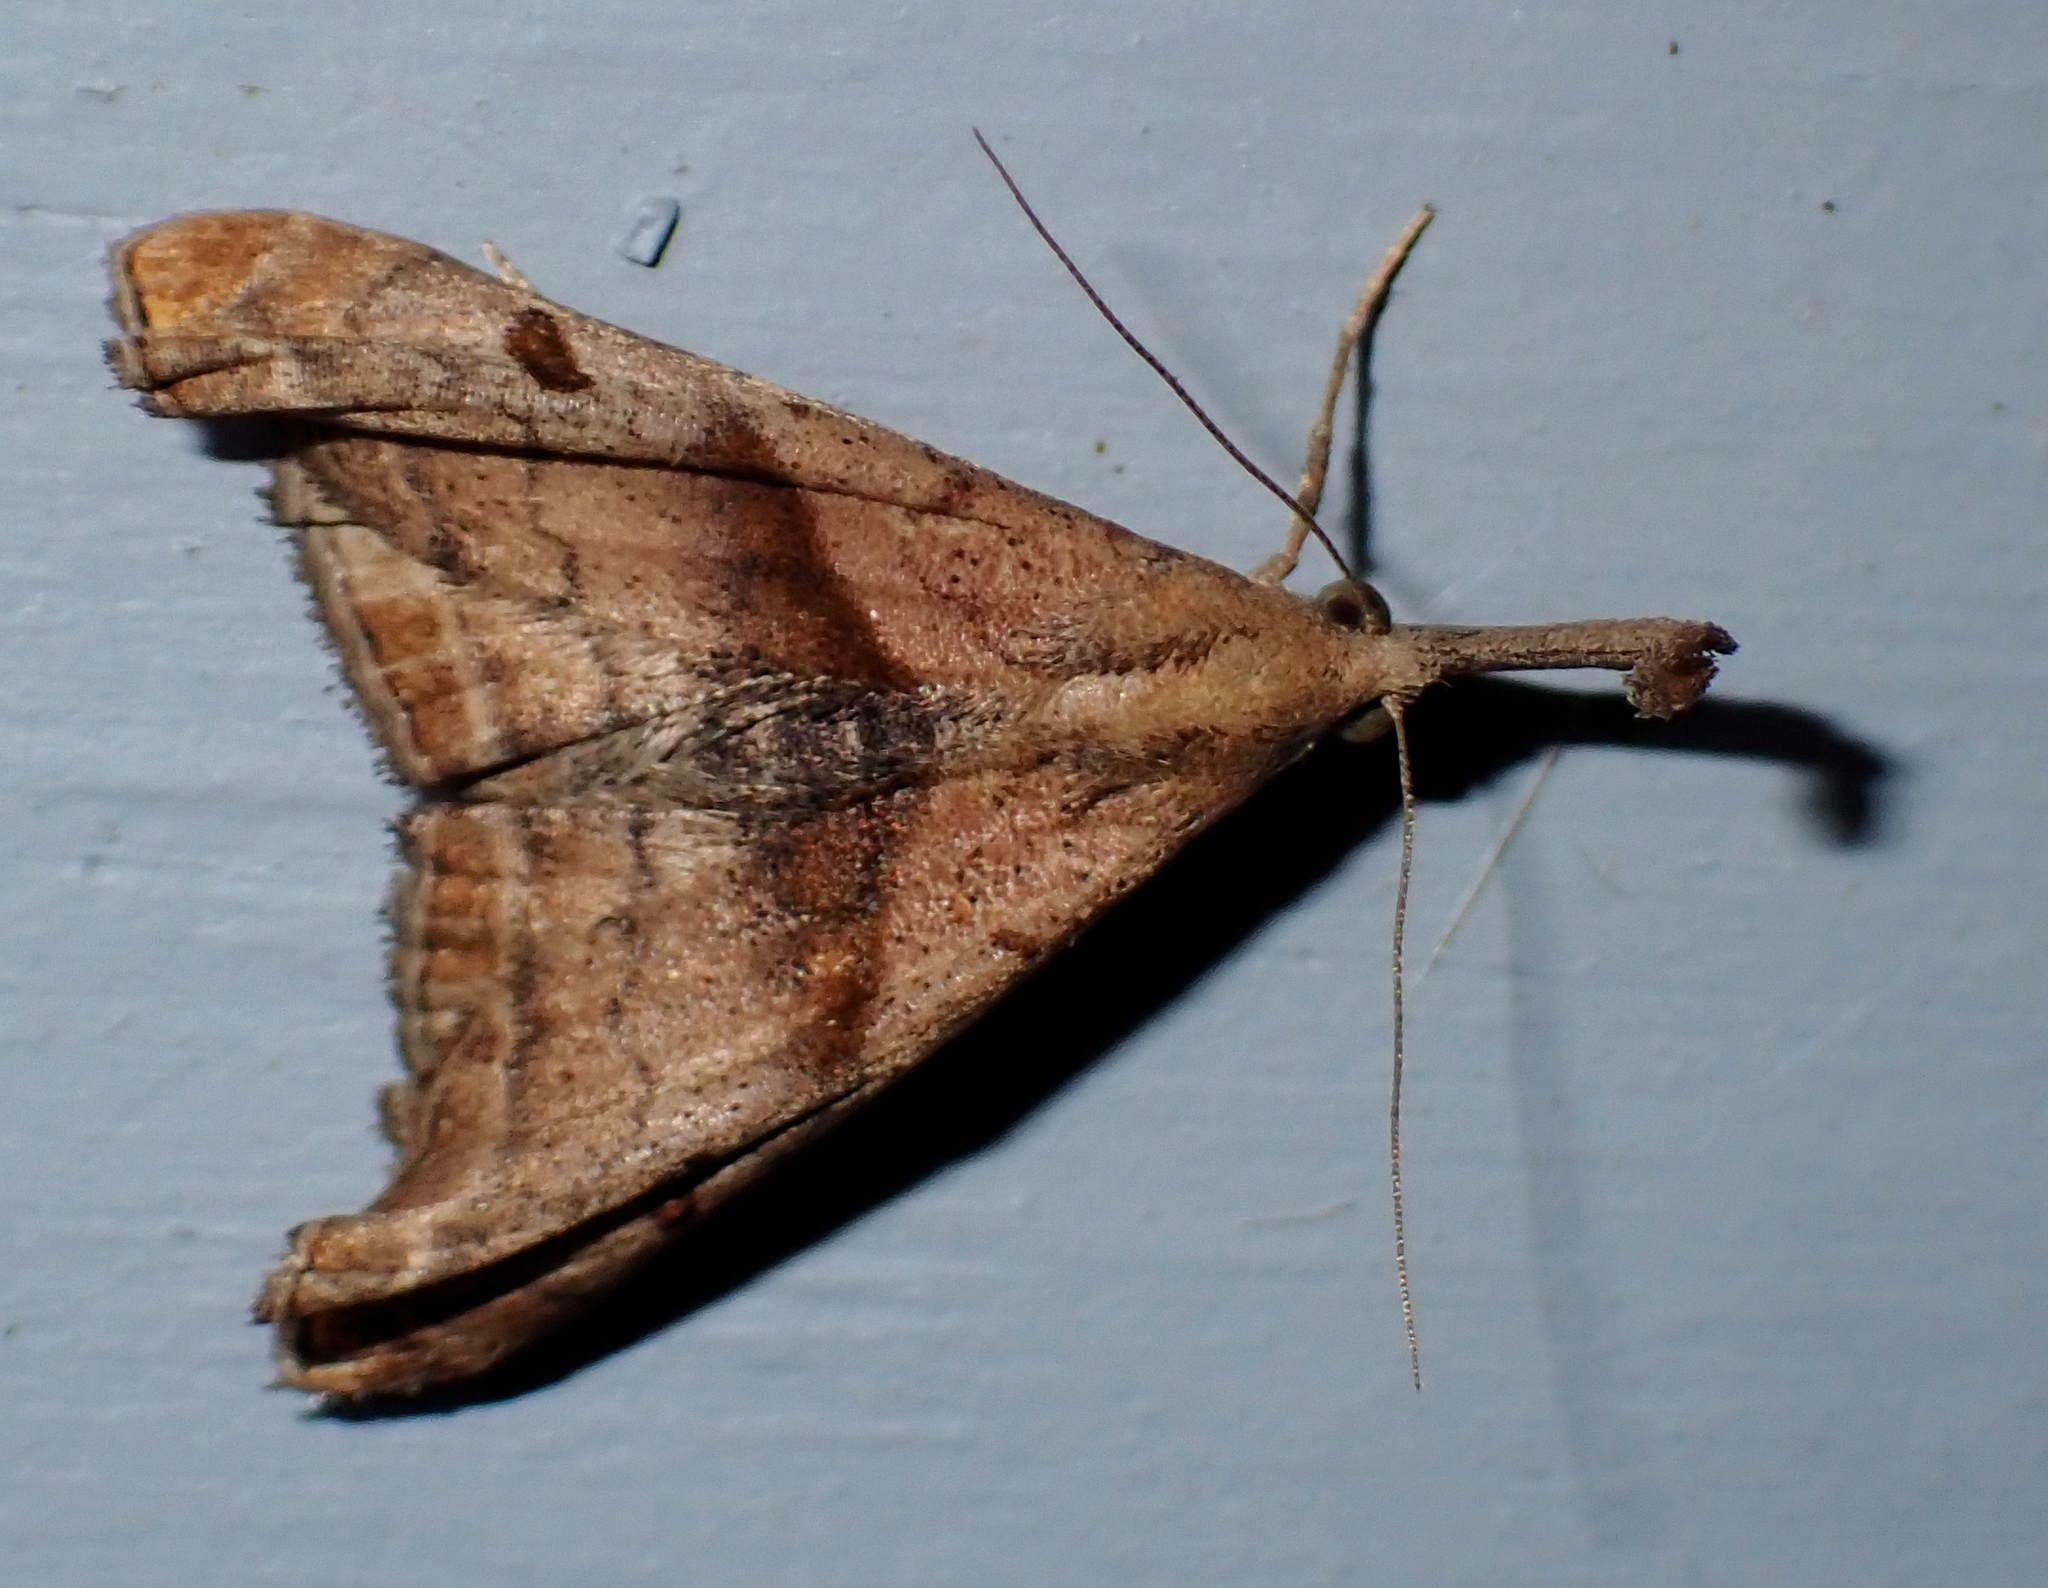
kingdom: Animalia
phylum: Arthropoda
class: Insecta
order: Lepidoptera
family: Erebidae
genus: Palthis
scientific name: Palthis angulalis
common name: Dark-spotted palthis moth
